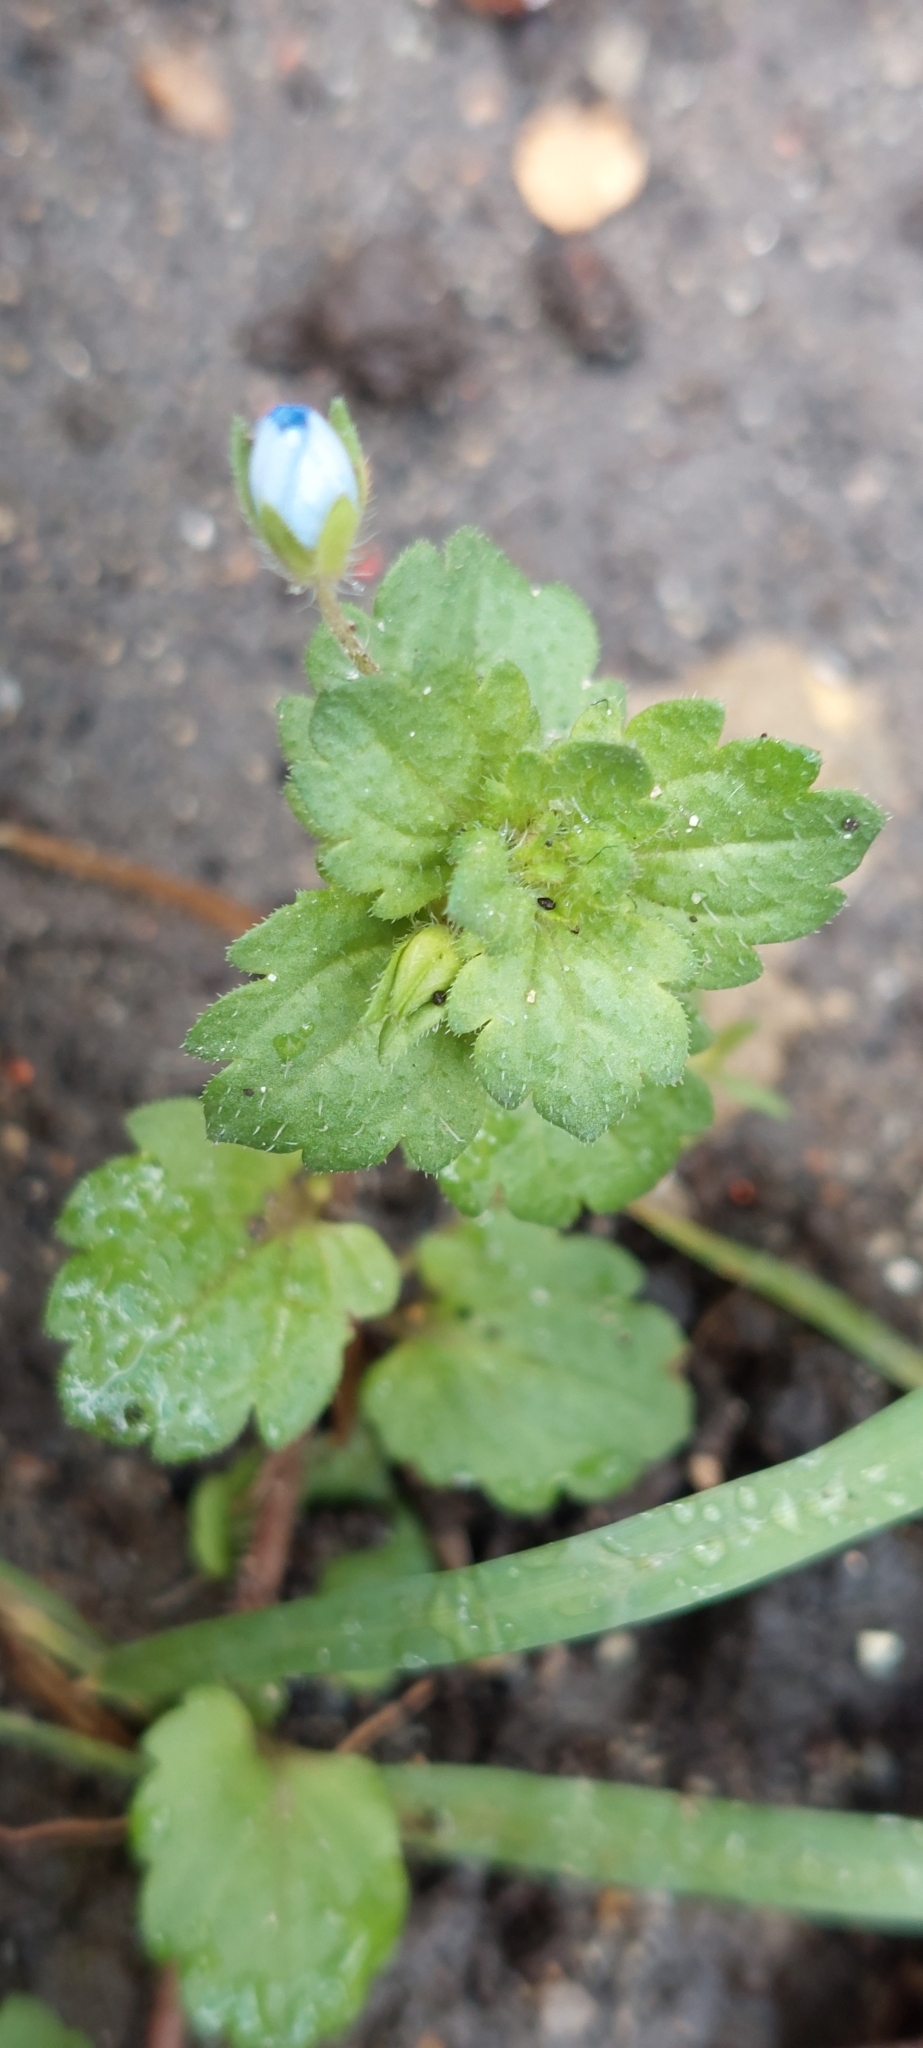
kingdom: Plantae
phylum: Tracheophyta
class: Magnoliopsida
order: Lamiales
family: Plantaginaceae
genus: Veronica
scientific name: Veronica persica
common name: Common field-speedwell
